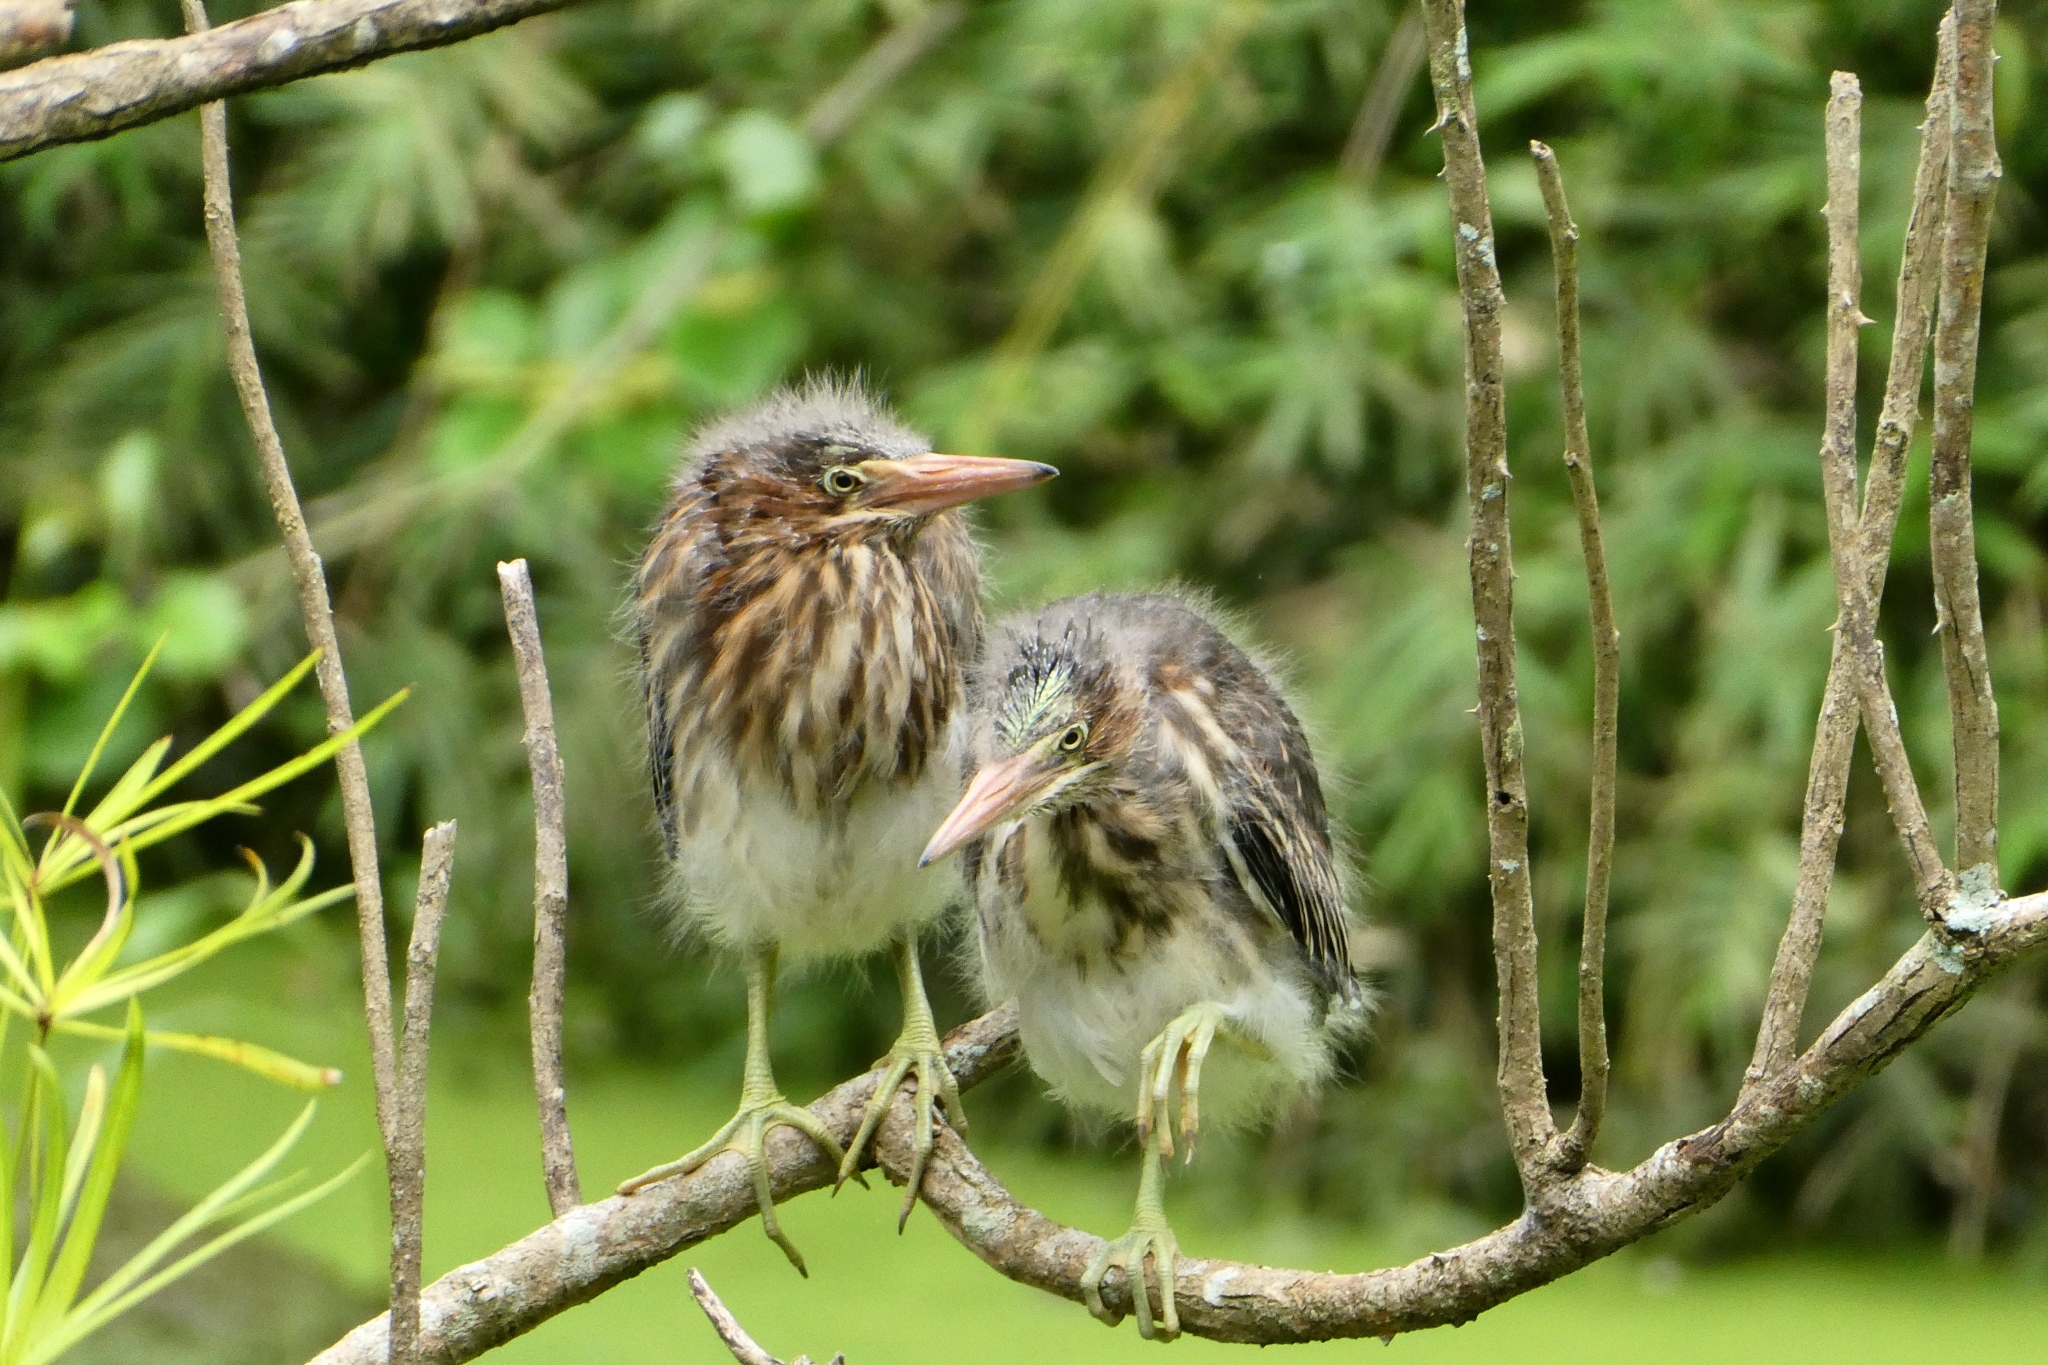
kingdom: Animalia
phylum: Chordata
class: Aves
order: Pelecaniformes
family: Ardeidae
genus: Butorides
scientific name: Butorides virescens
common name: Green heron
